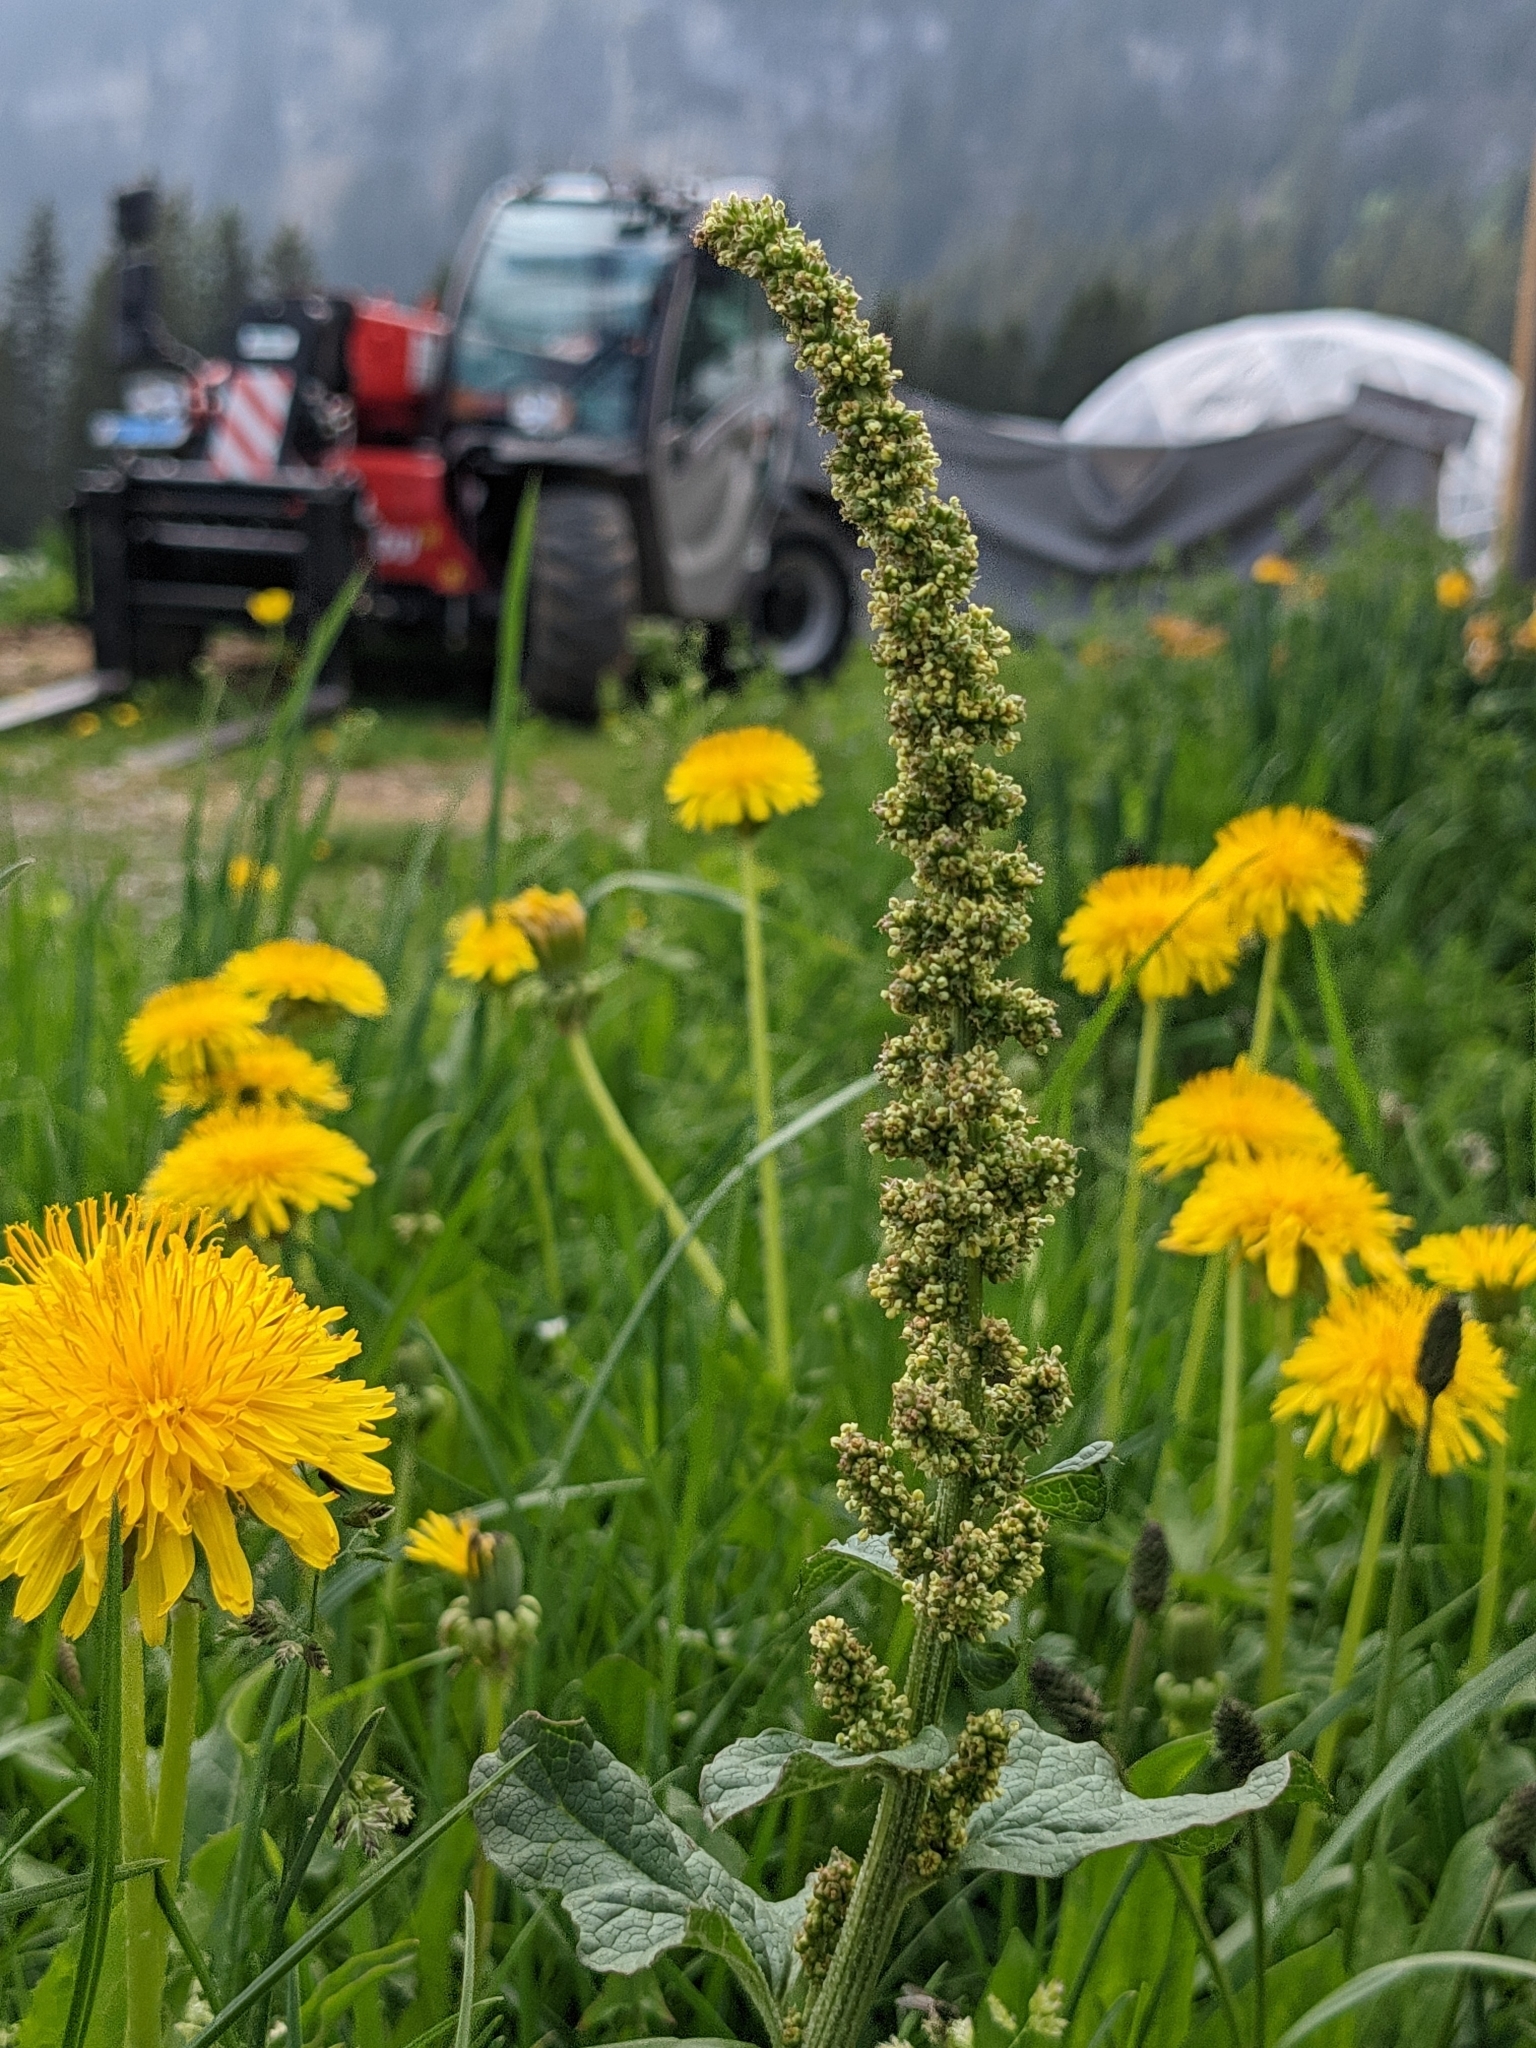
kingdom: Plantae
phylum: Tracheophyta
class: Magnoliopsida
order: Caryophyllales
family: Amaranthaceae
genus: Blitum
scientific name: Blitum bonus-henricus
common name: Good king henry
